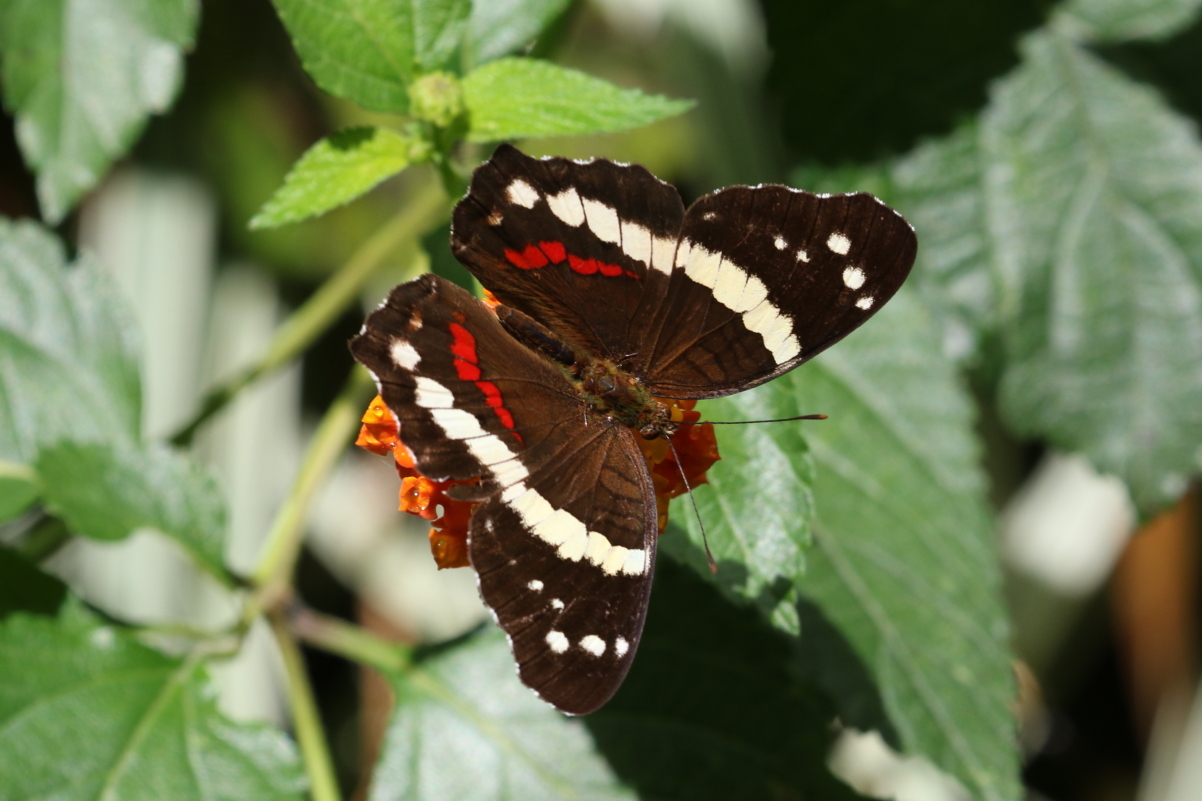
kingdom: Animalia
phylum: Arthropoda
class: Insecta
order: Lepidoptera
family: Nymphalidae
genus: Anartia
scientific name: Anartia fatima
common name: Banded peacock
